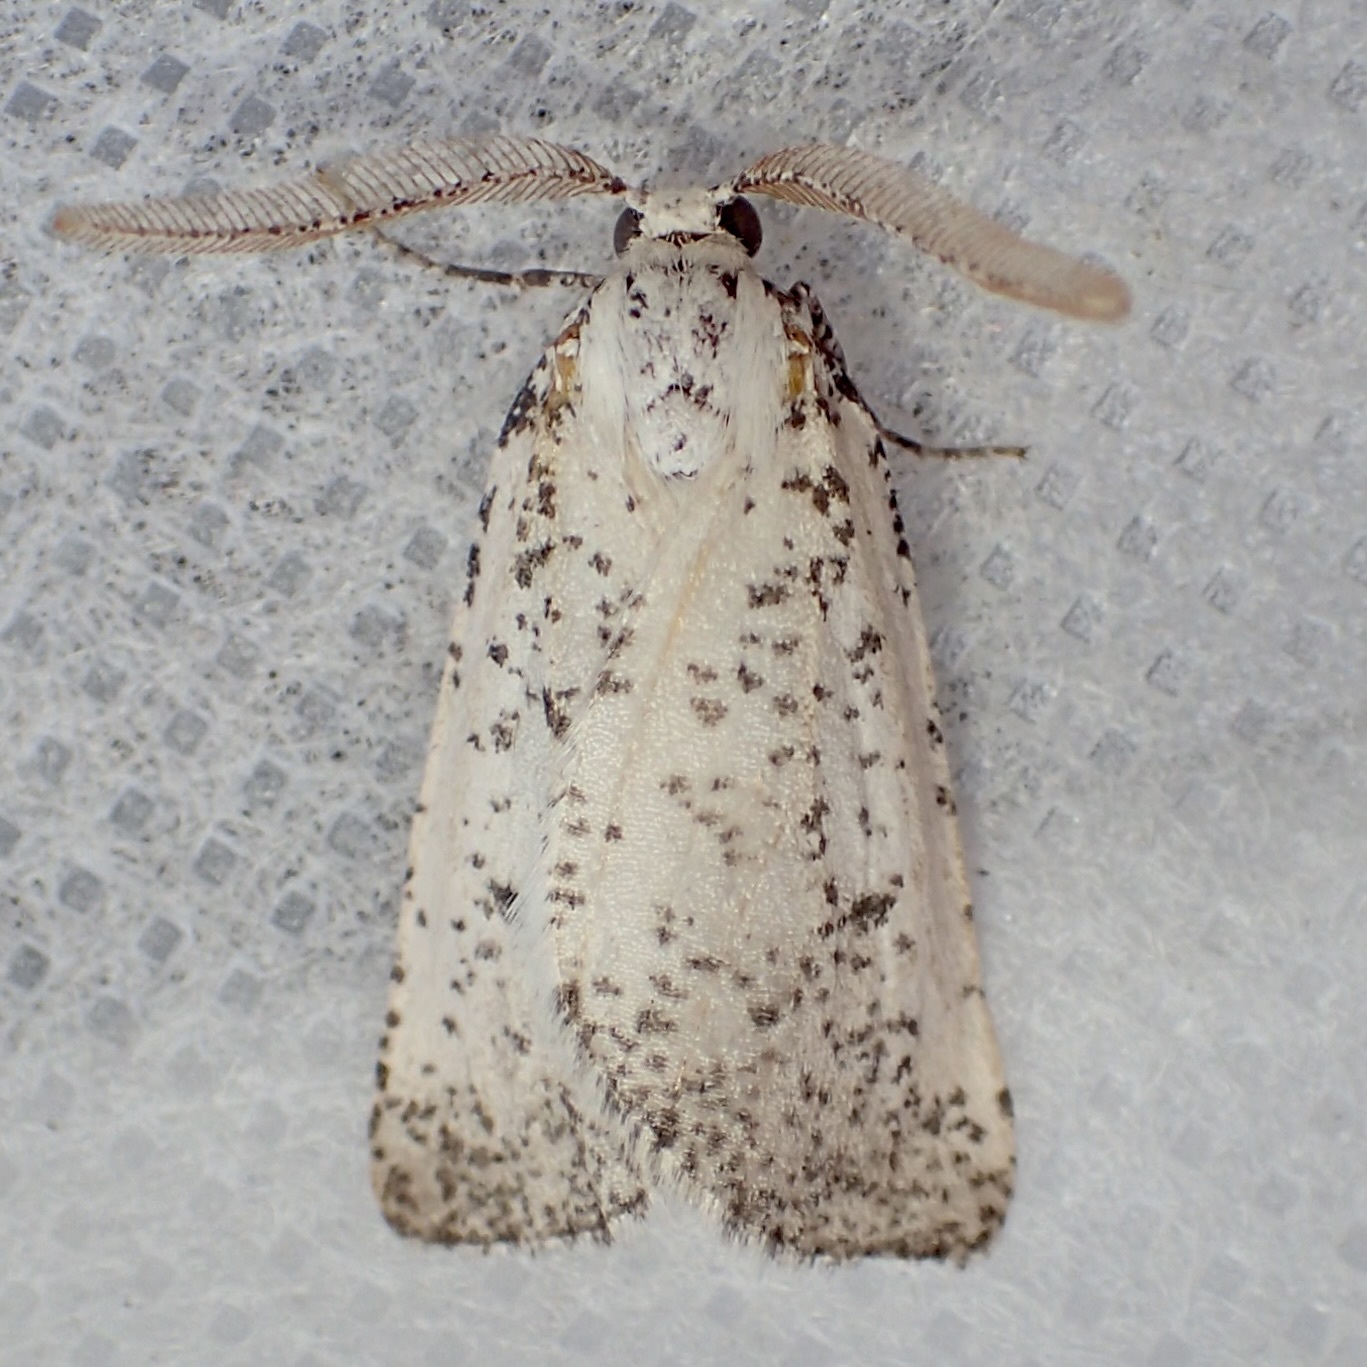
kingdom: Animalia
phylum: Arthropoda
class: Insecta
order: Lepidoptera
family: Geometridae
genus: Eucaterva
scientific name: Eucaterva variaria
